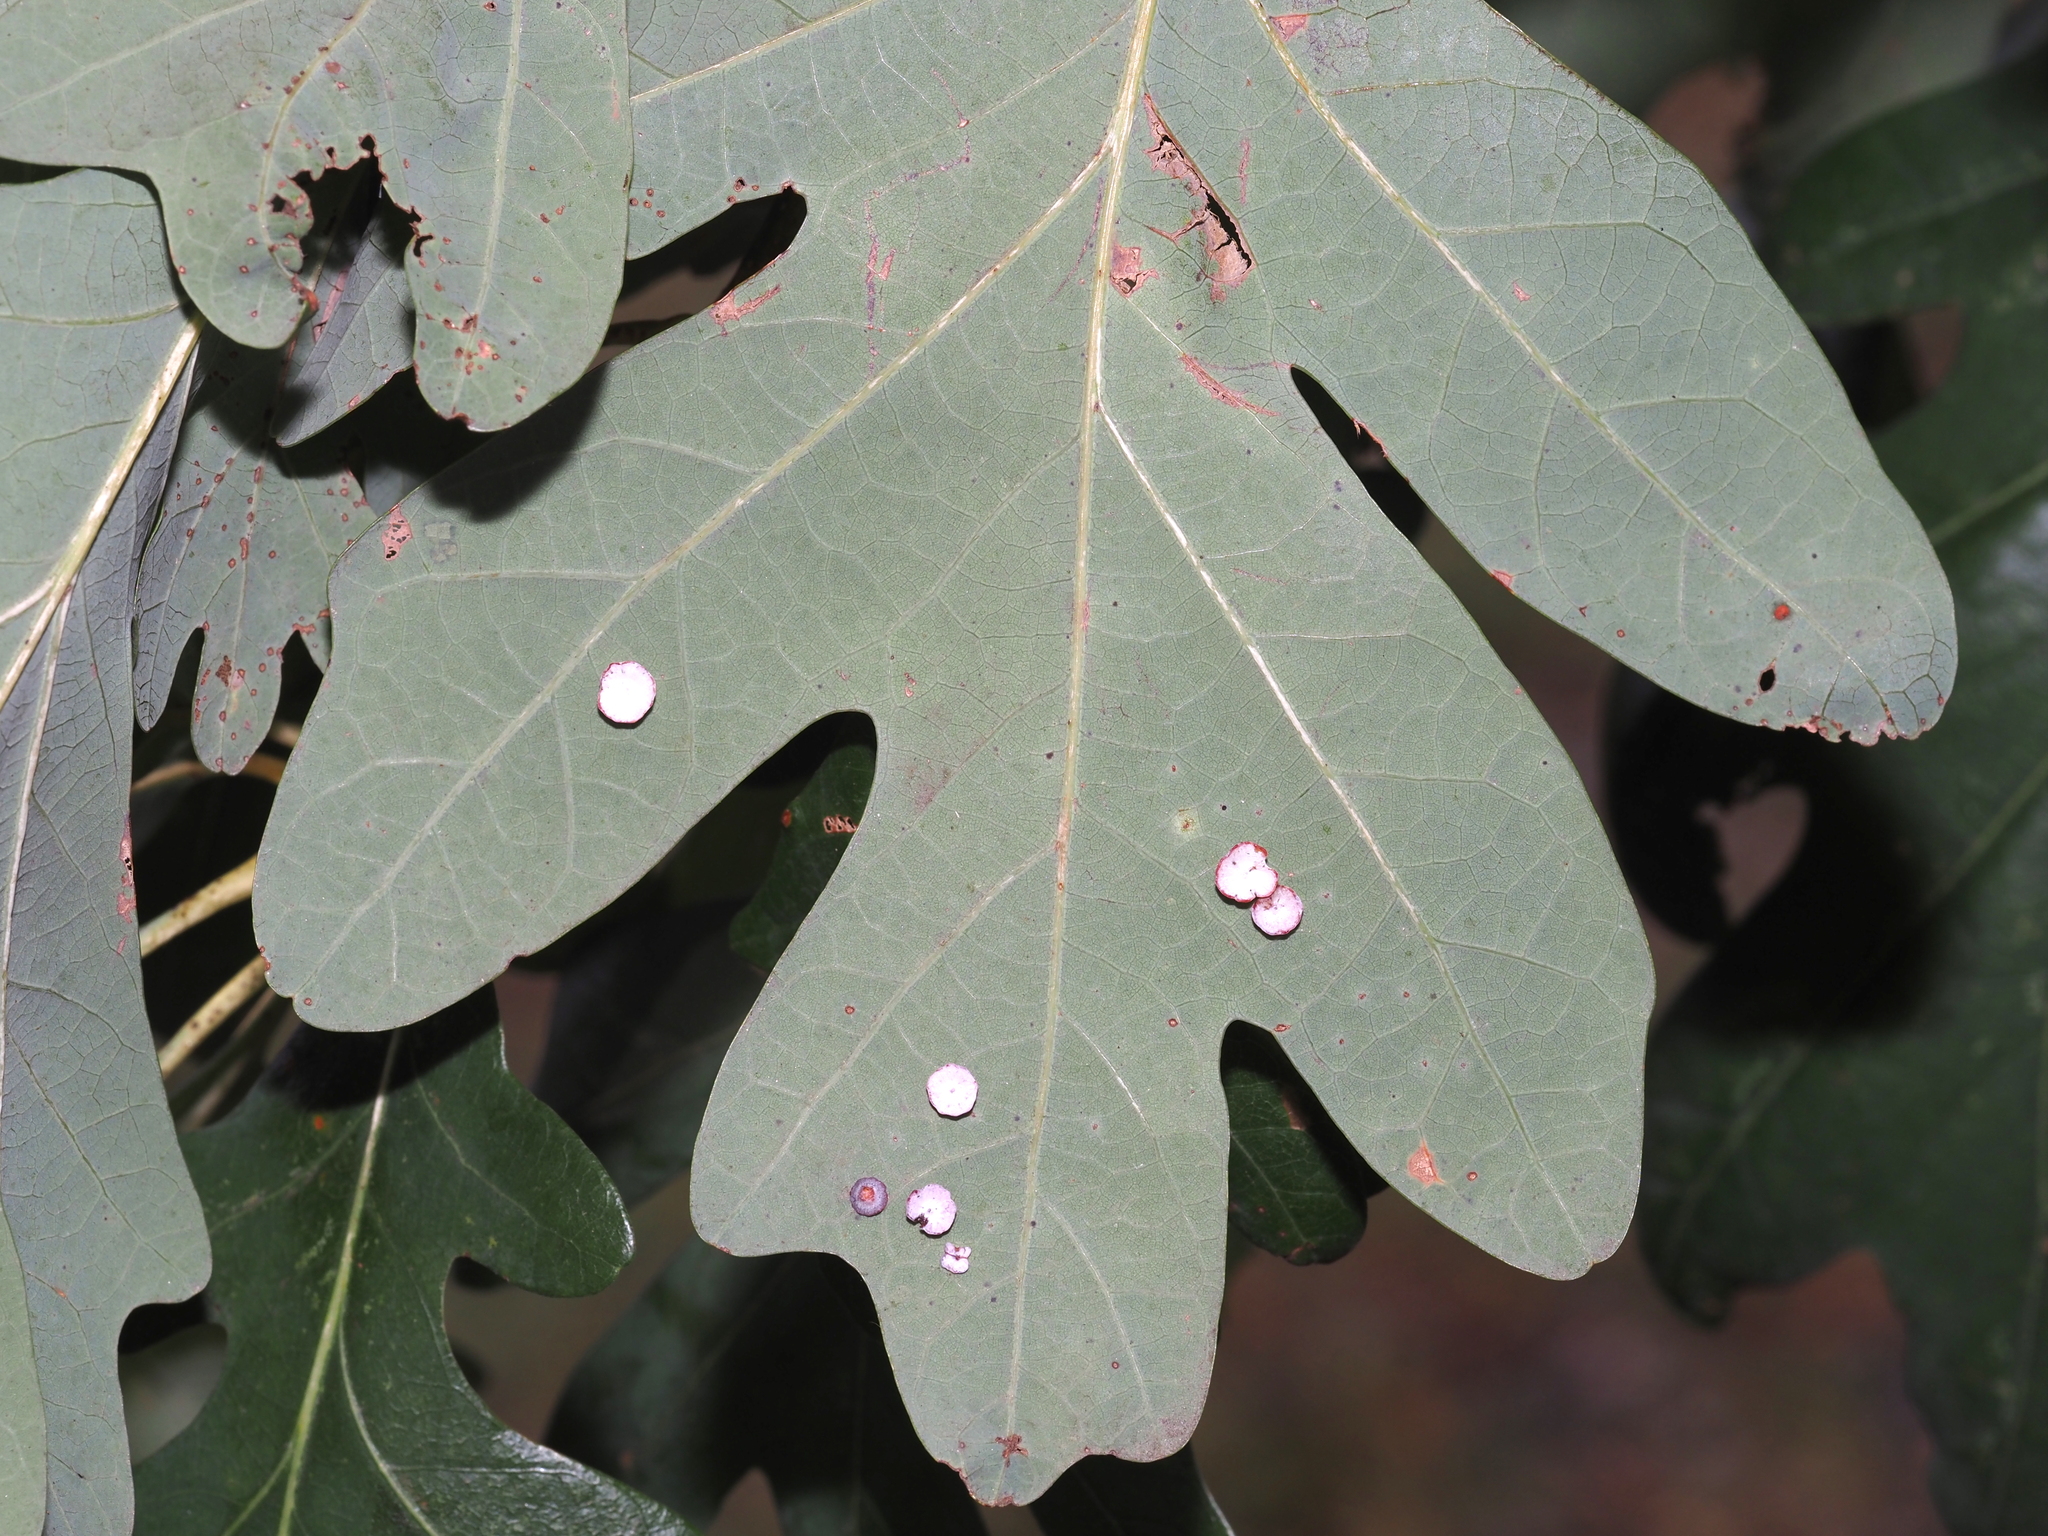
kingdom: Animalia
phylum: Arthropoda
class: Insecta
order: Hymenoptera
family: Cynipidae
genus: Phylloteras
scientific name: Phylloteras poculum
